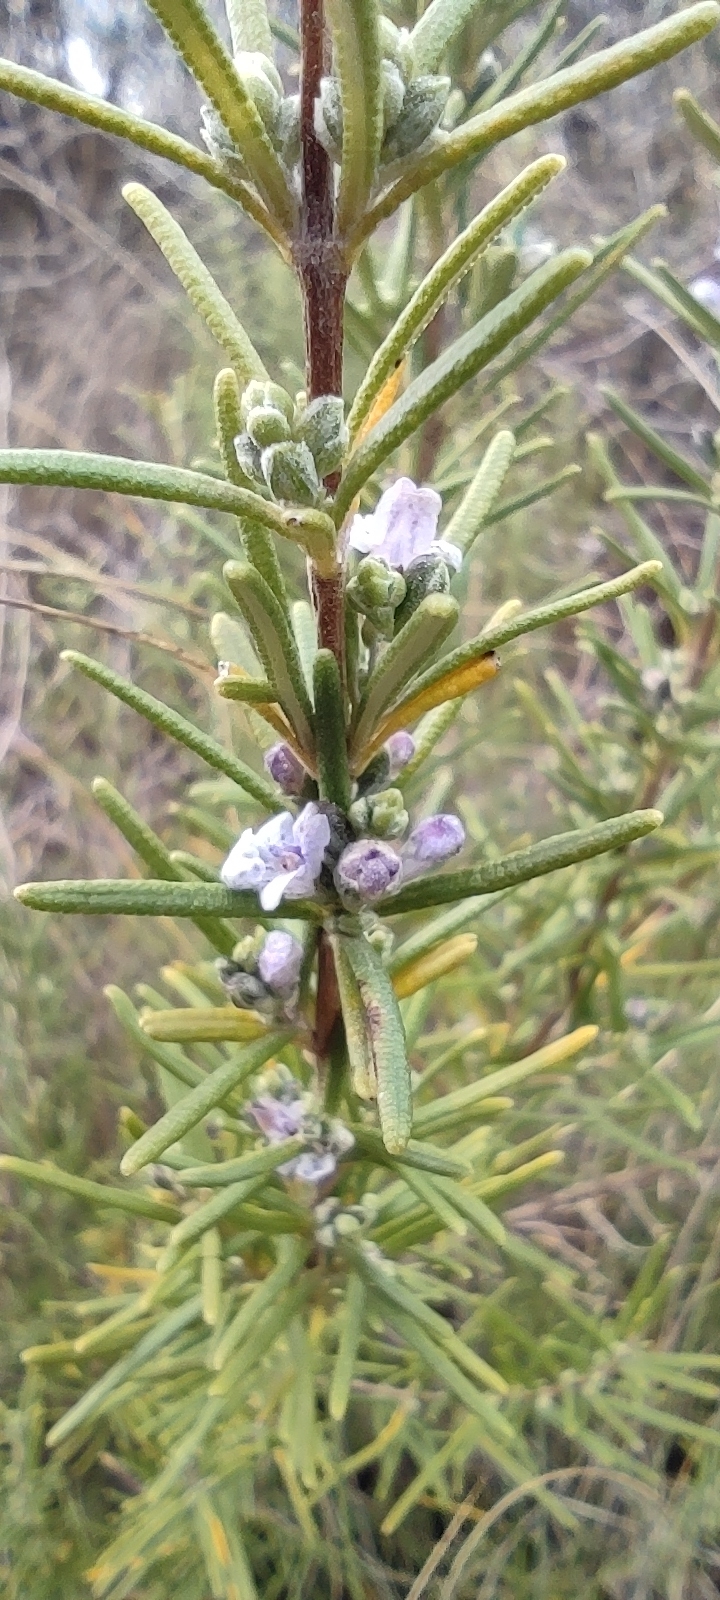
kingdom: Plantae
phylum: Tracheophyta
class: Magnoliopsida
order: Lamiales
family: Lamiaceae
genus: Salvia
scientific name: Salvia rosmarinus
